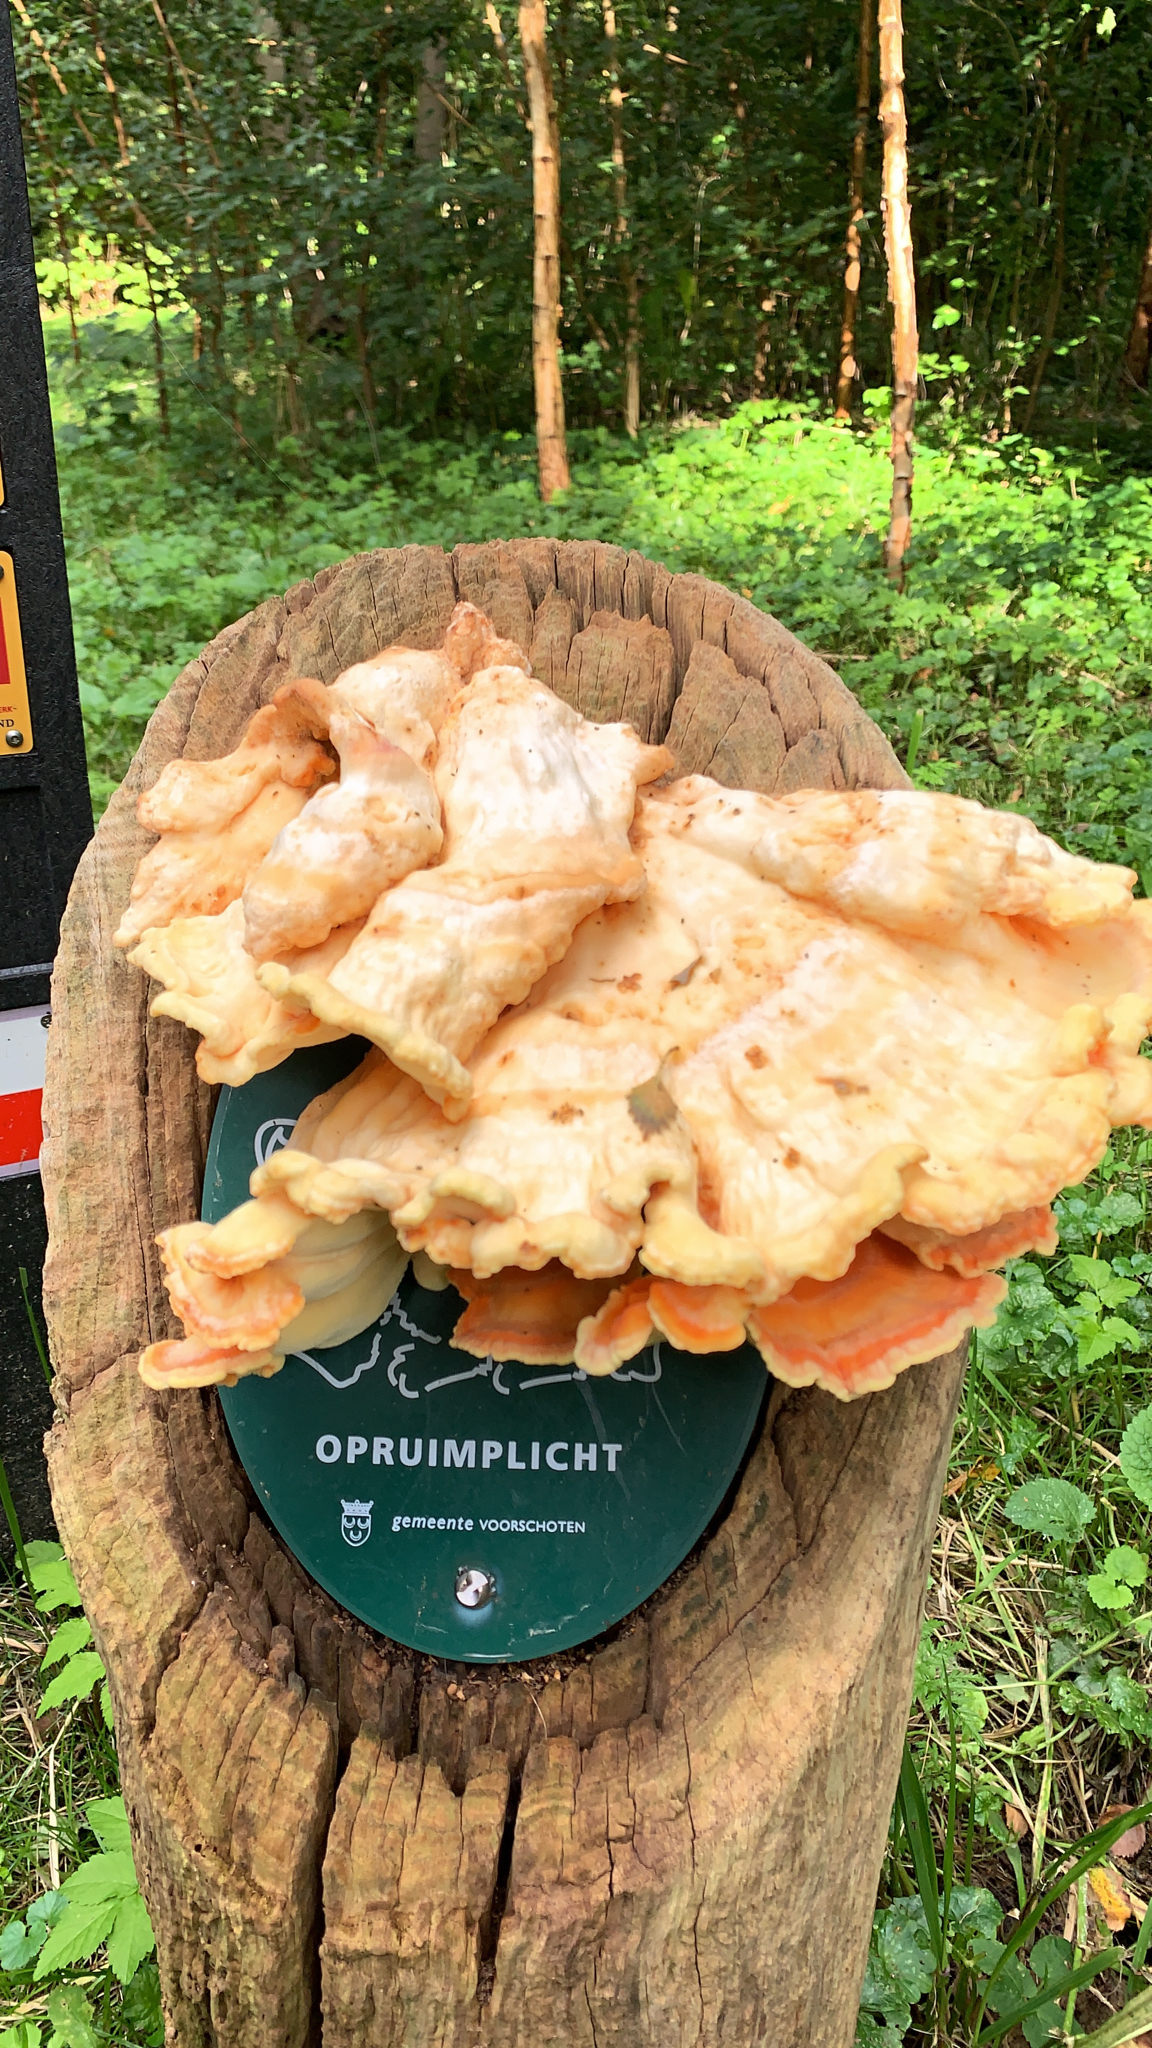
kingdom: Fungi
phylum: Basidiomycota
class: Agaricomycetes
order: Polyporales
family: Laetiporaceae
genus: Laetiporus
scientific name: Laetiporus sulphureus
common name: Chicken of the woods
